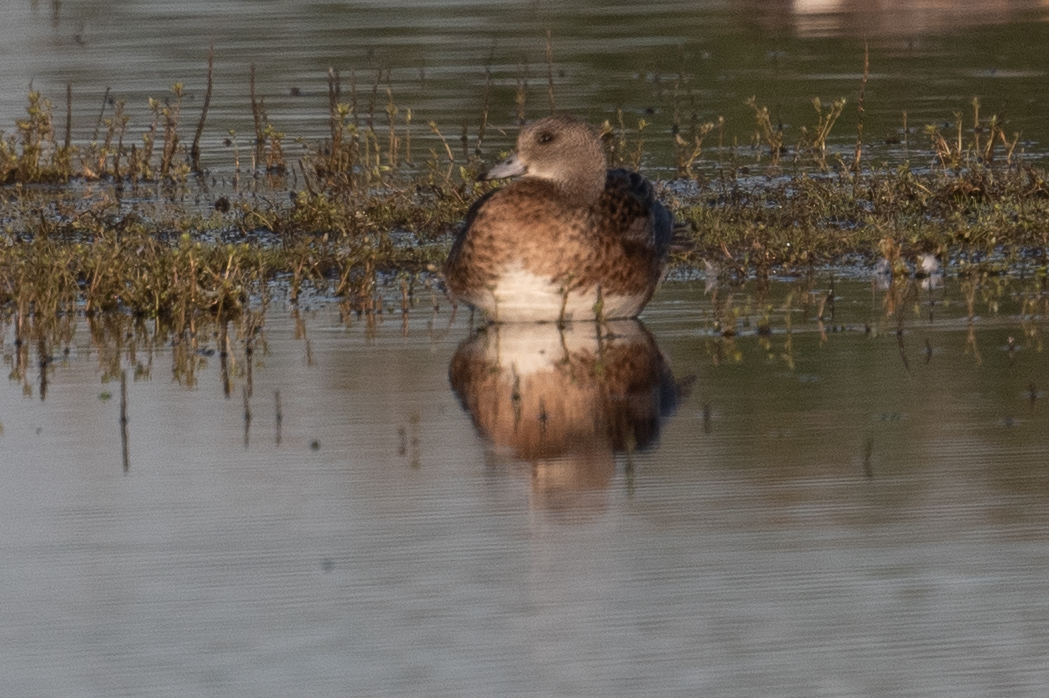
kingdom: Animalia
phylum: Chordata
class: Aves
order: Anseriformes
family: Anatidae
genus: Mareca
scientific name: Mareca americana
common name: American wigeon
